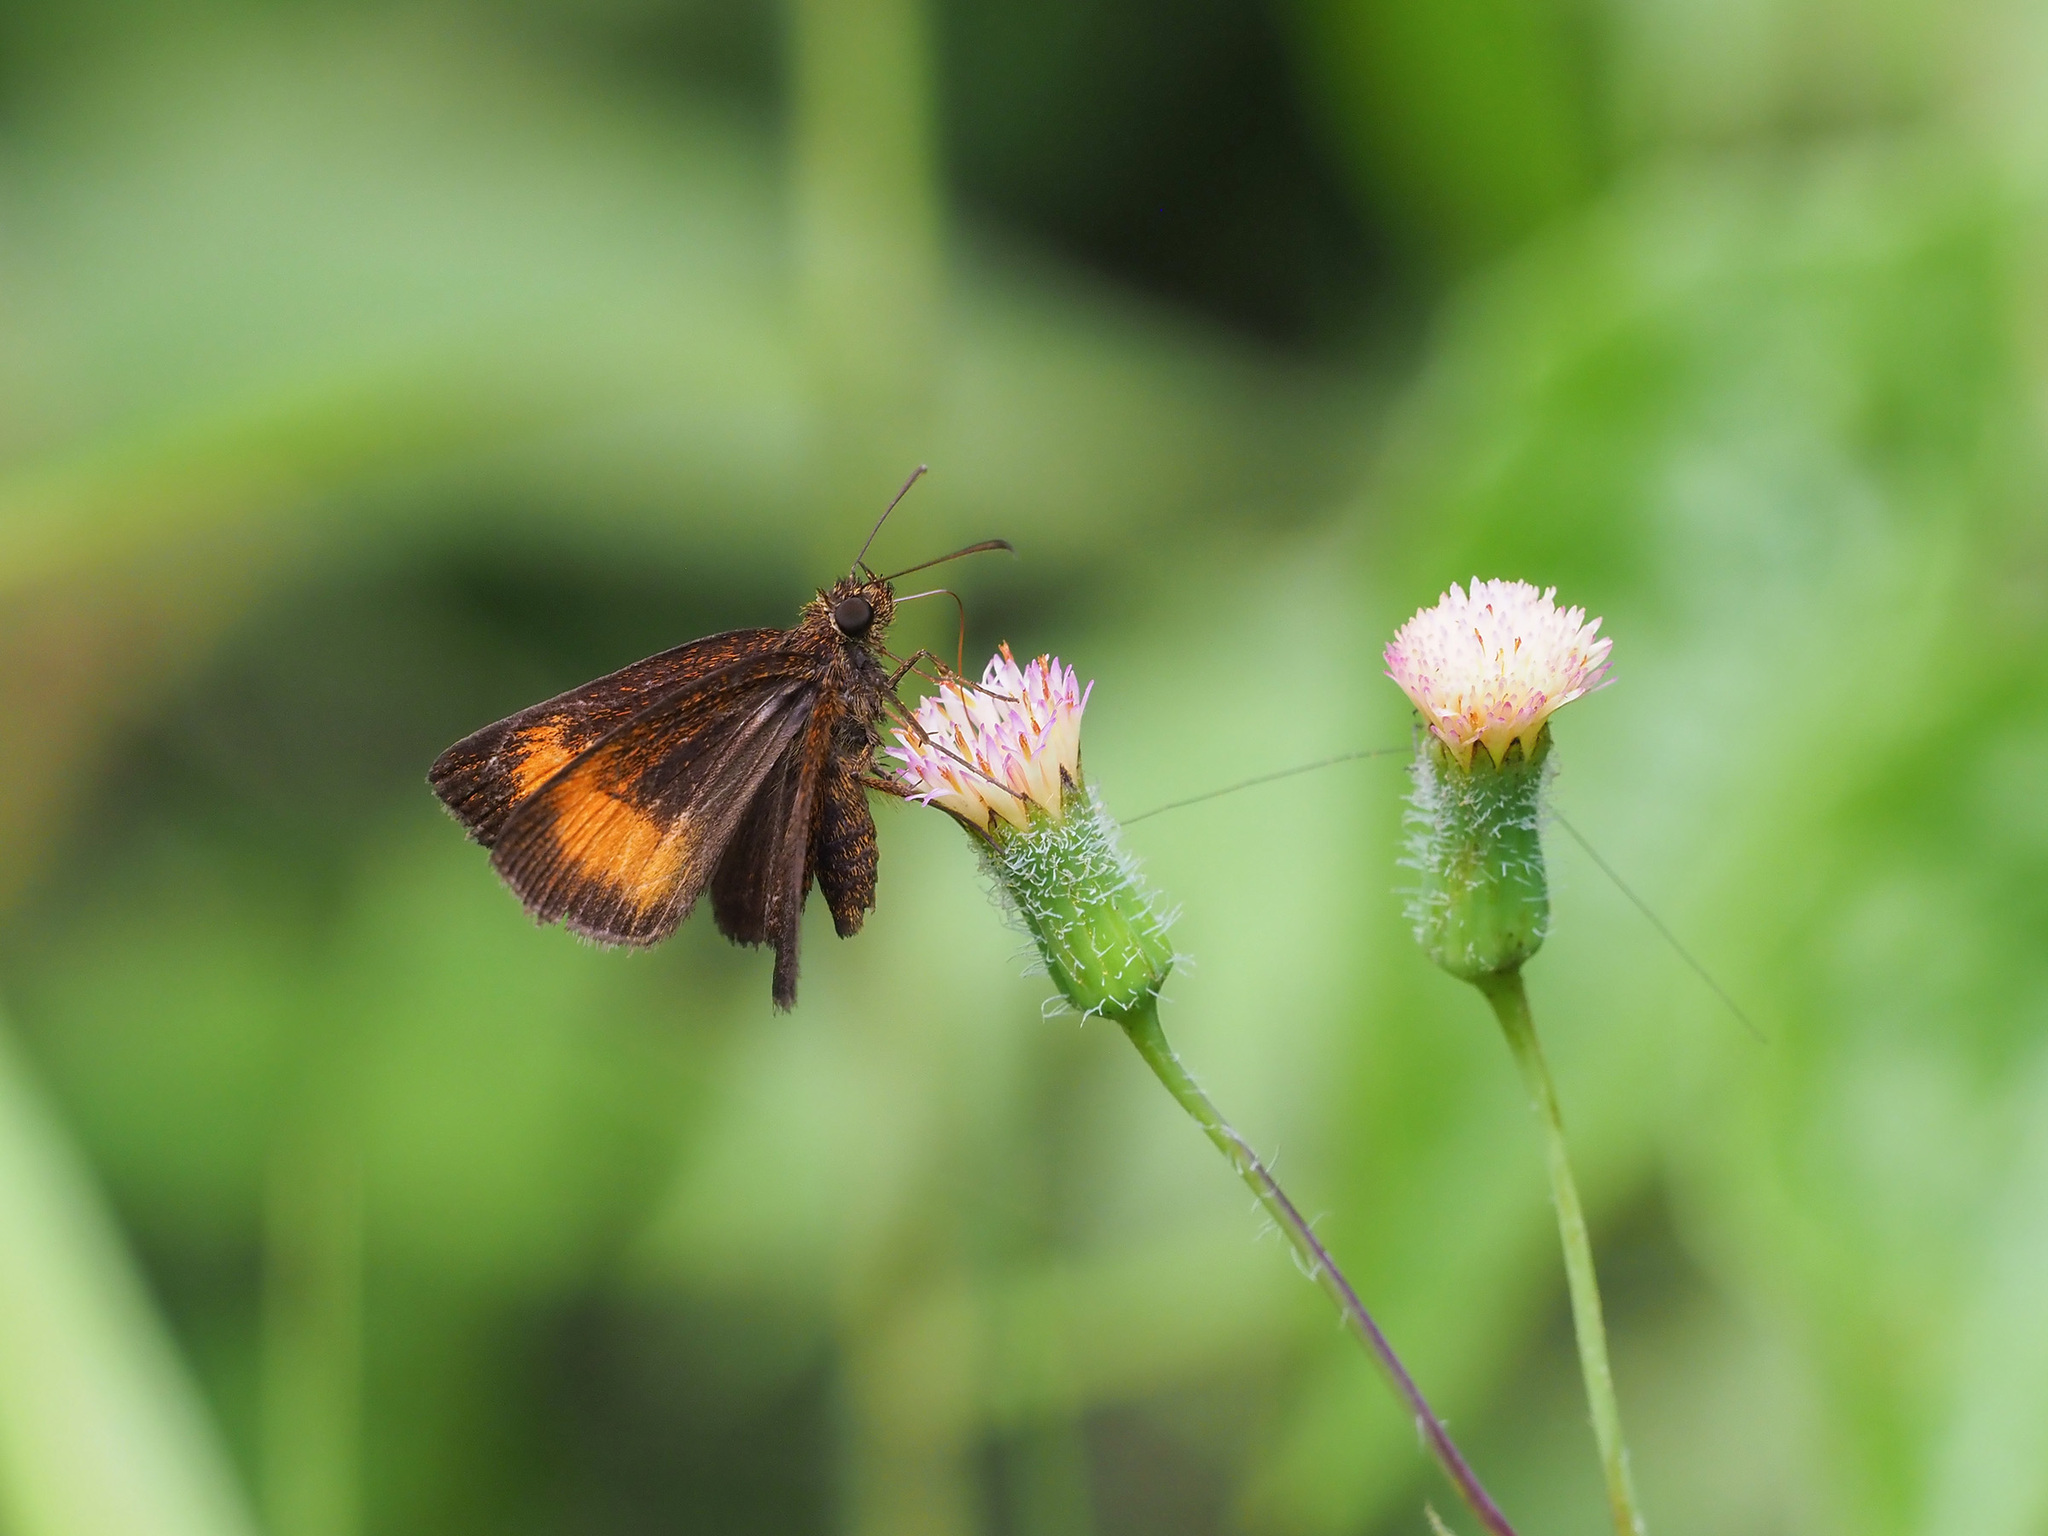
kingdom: Animalia
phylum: Arthropoda
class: Insecta
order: Lepidoptera
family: Hesperiidae
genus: Iambrix
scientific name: Iambrix Idmon obliquans
